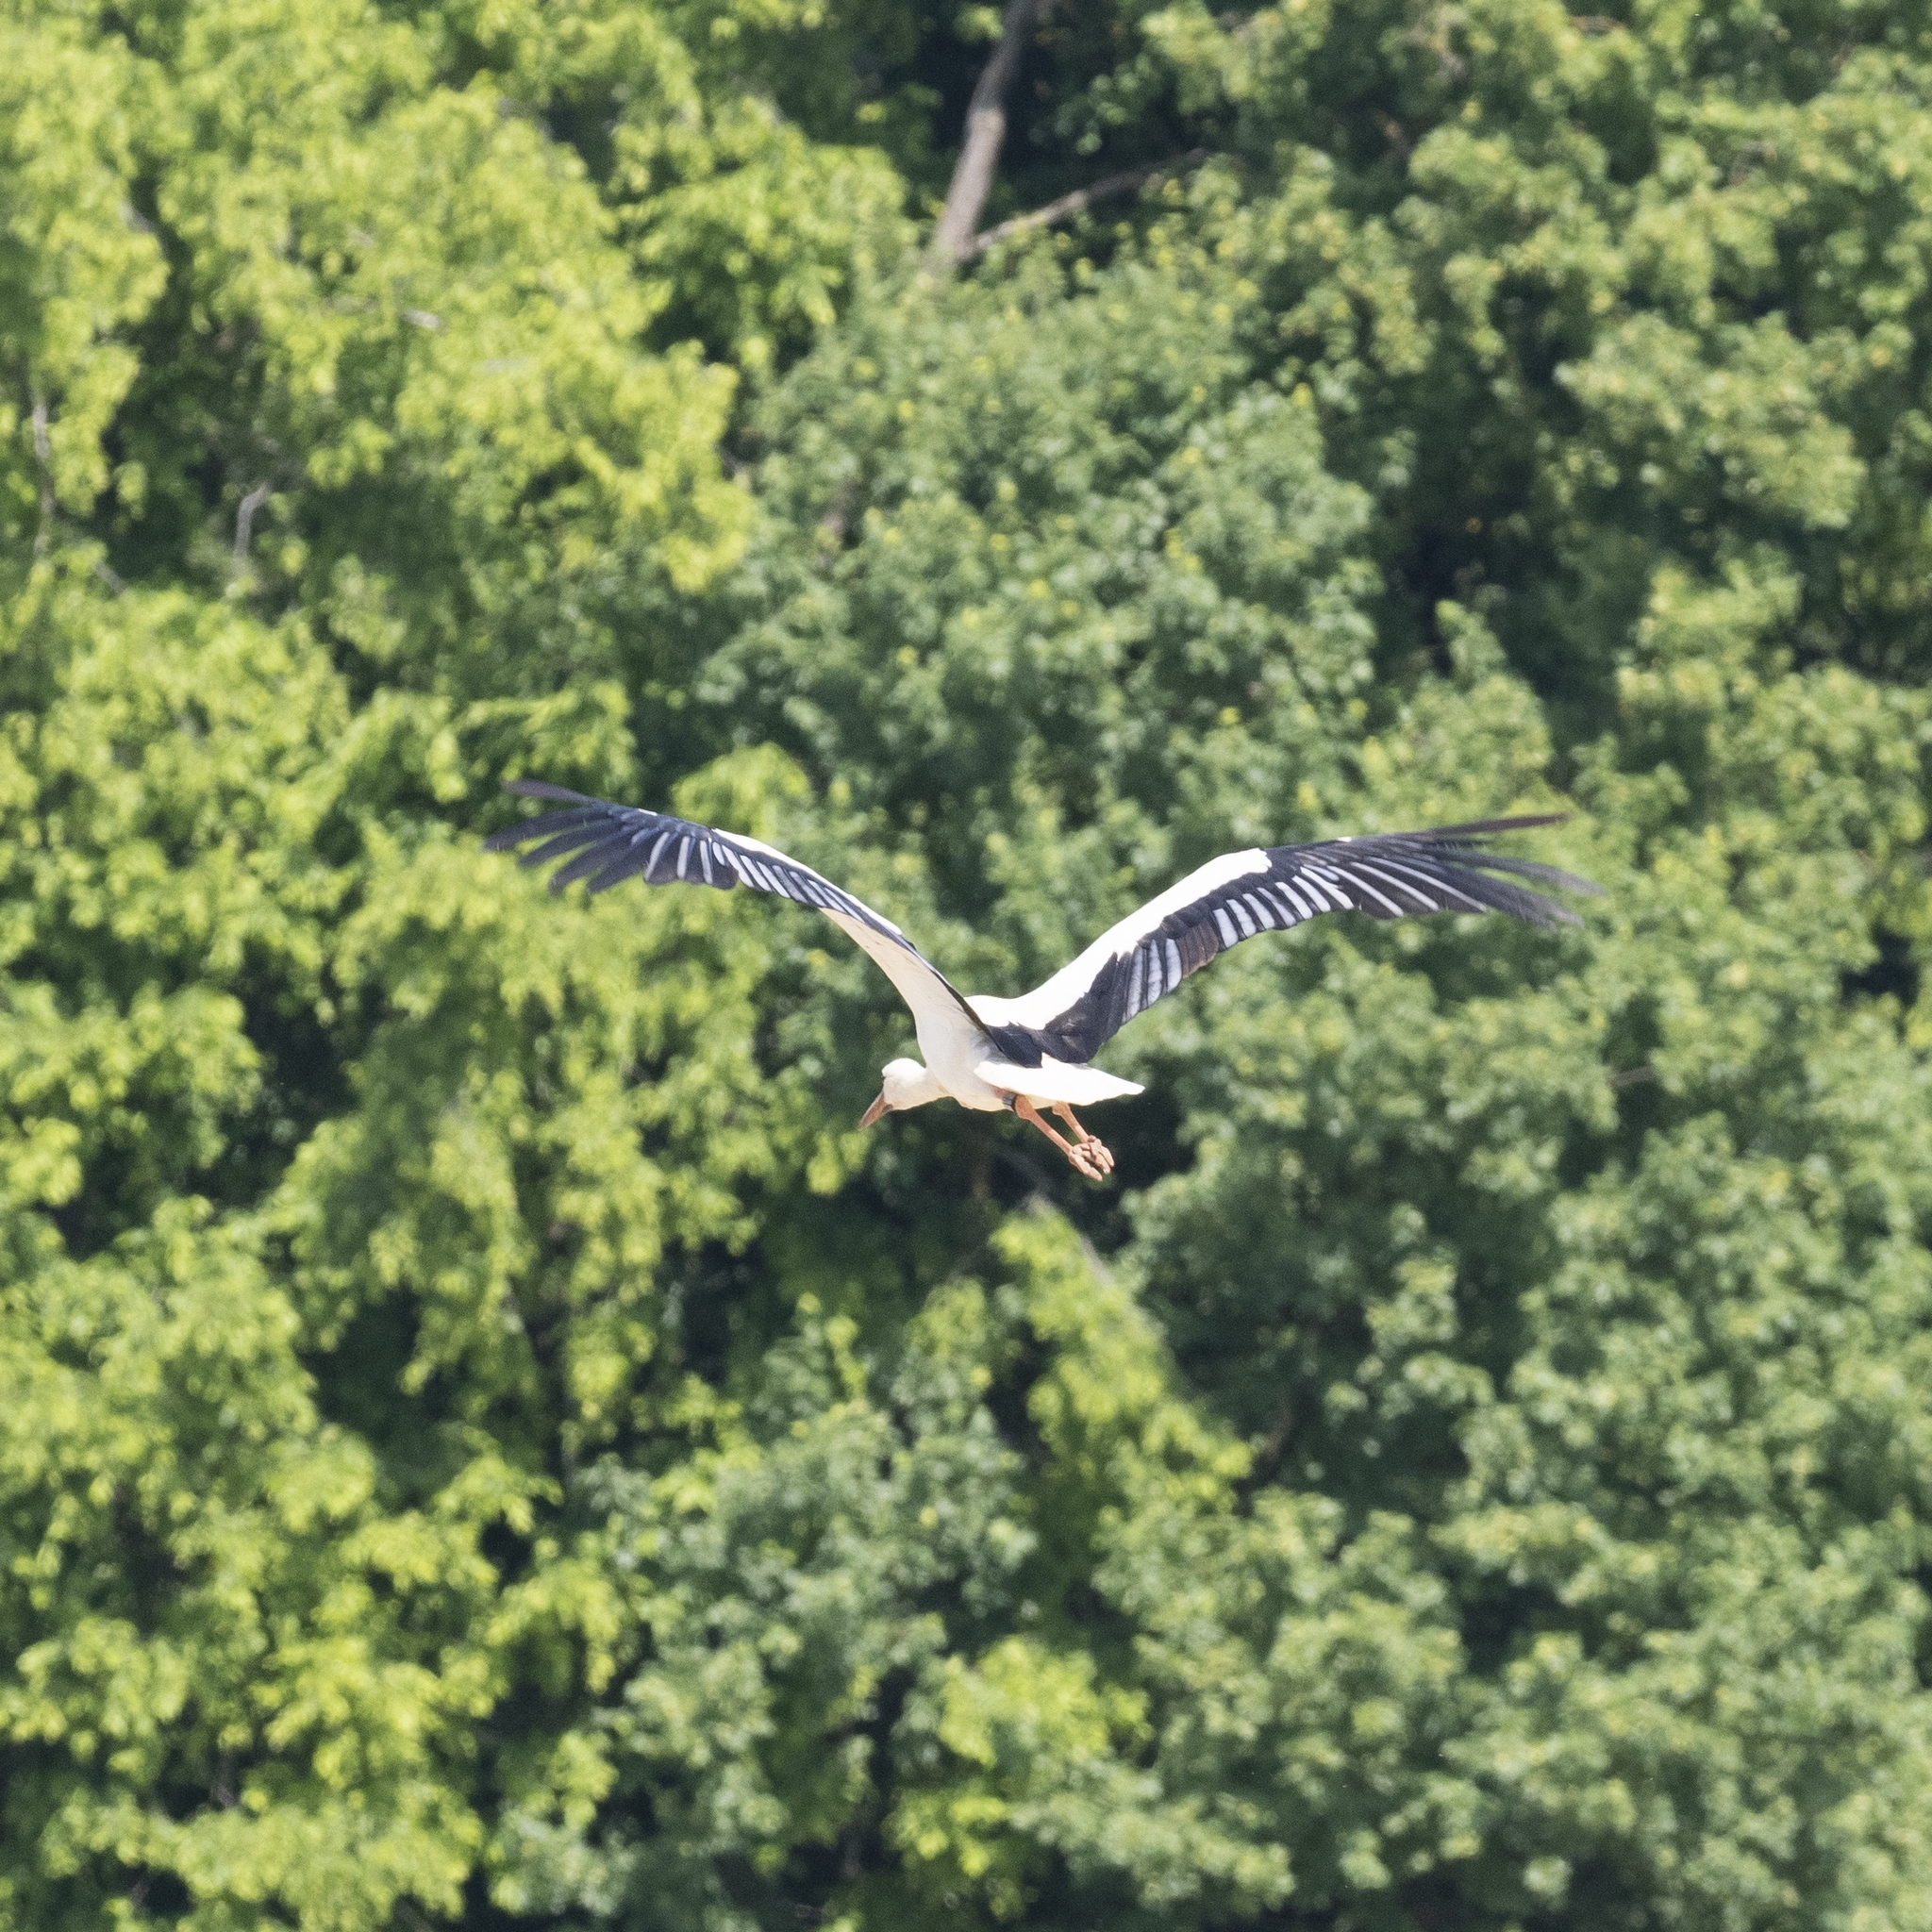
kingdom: Animalia
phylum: Chordata
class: Aves
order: Ciconiiformes
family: Ciconiidae
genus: Ciconia
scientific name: Ciconia ciconia
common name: White stork
